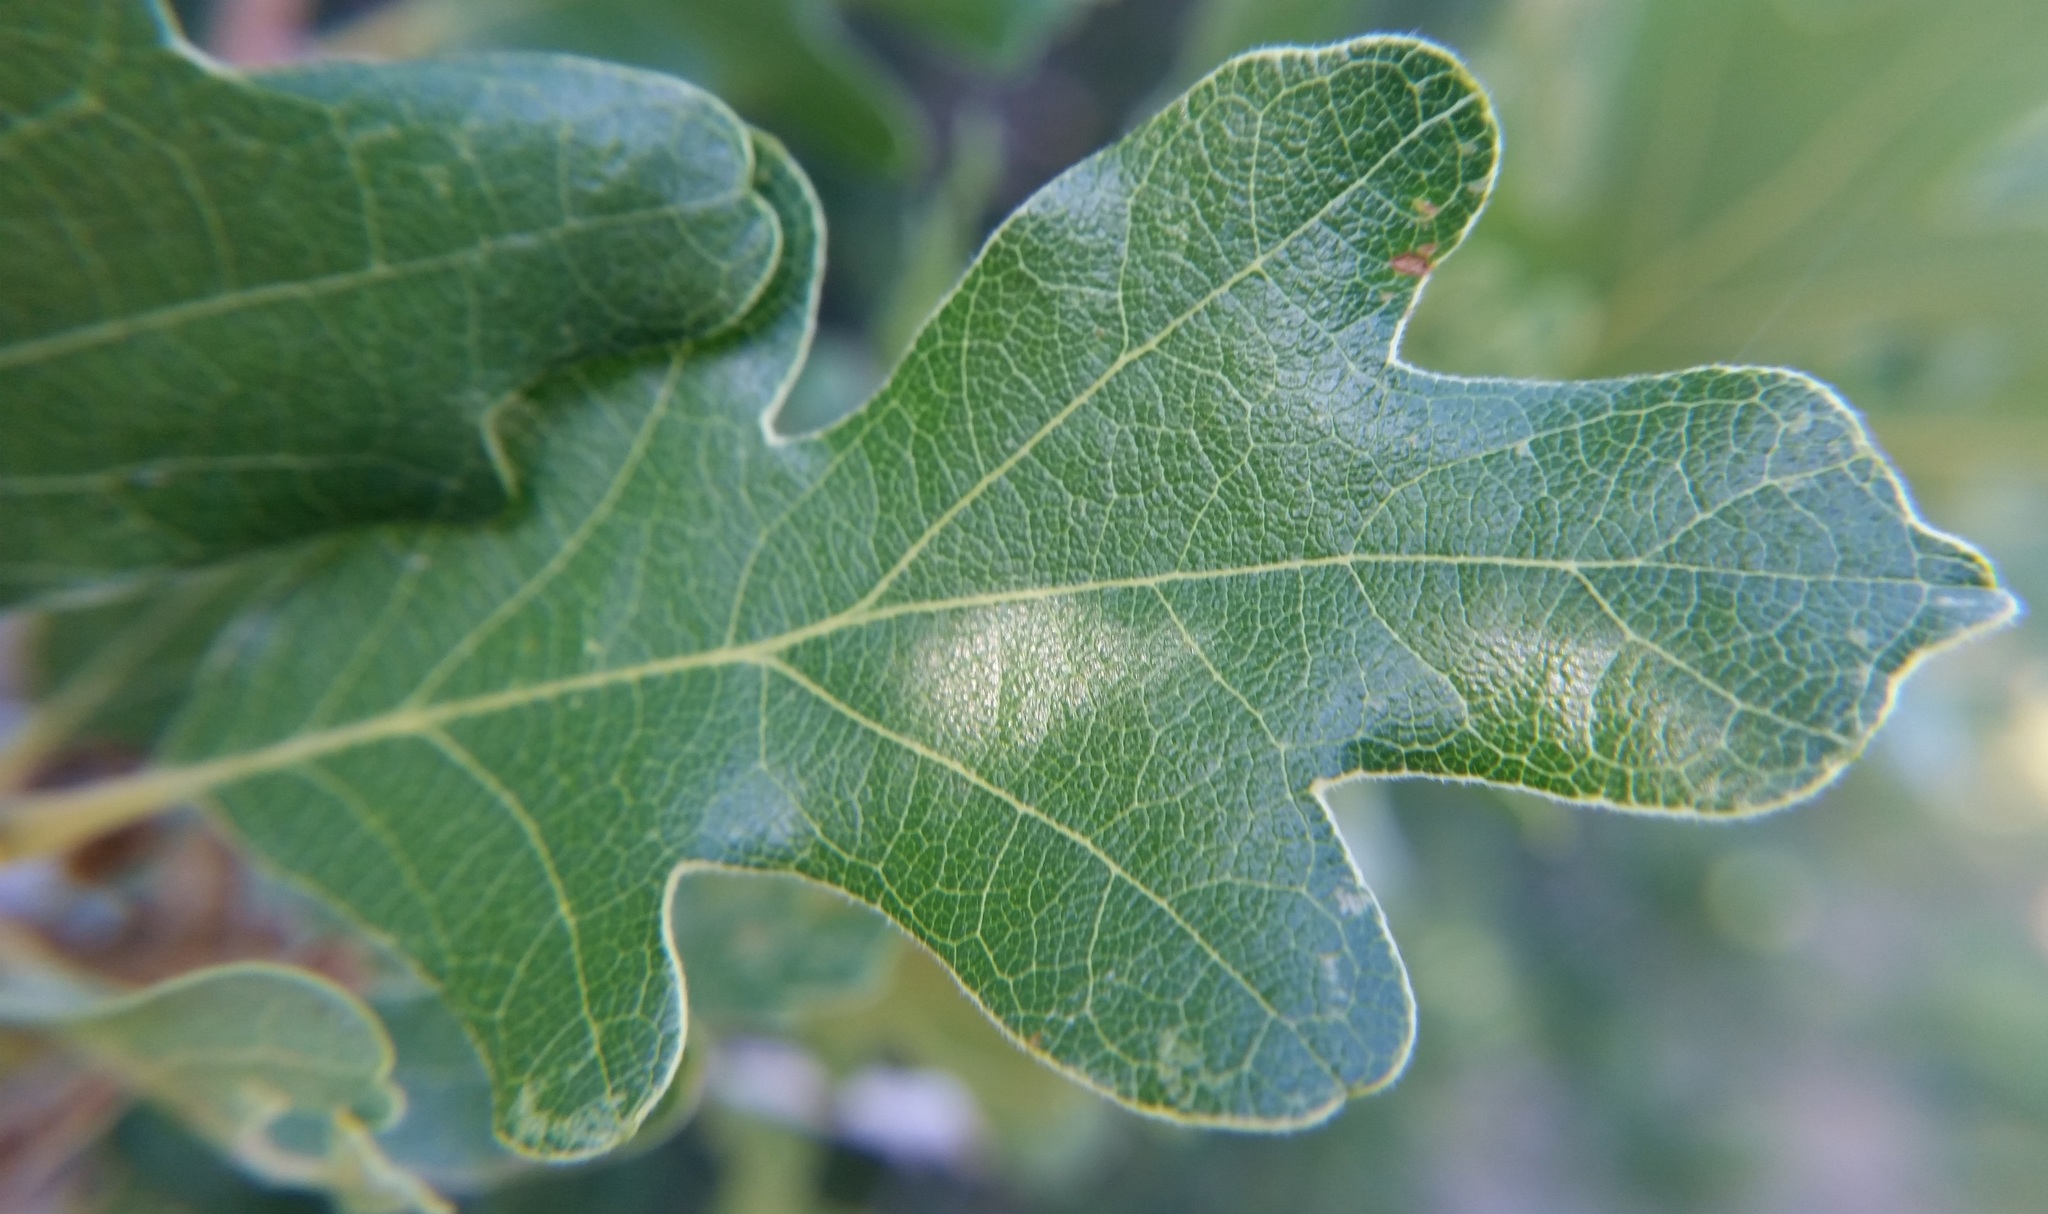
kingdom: Plantae
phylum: Tracheophyta
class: Magnoliopsida
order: Fagales
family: Fagaceae
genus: Quercus
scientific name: Quercus gambelii
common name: Gambel oak
